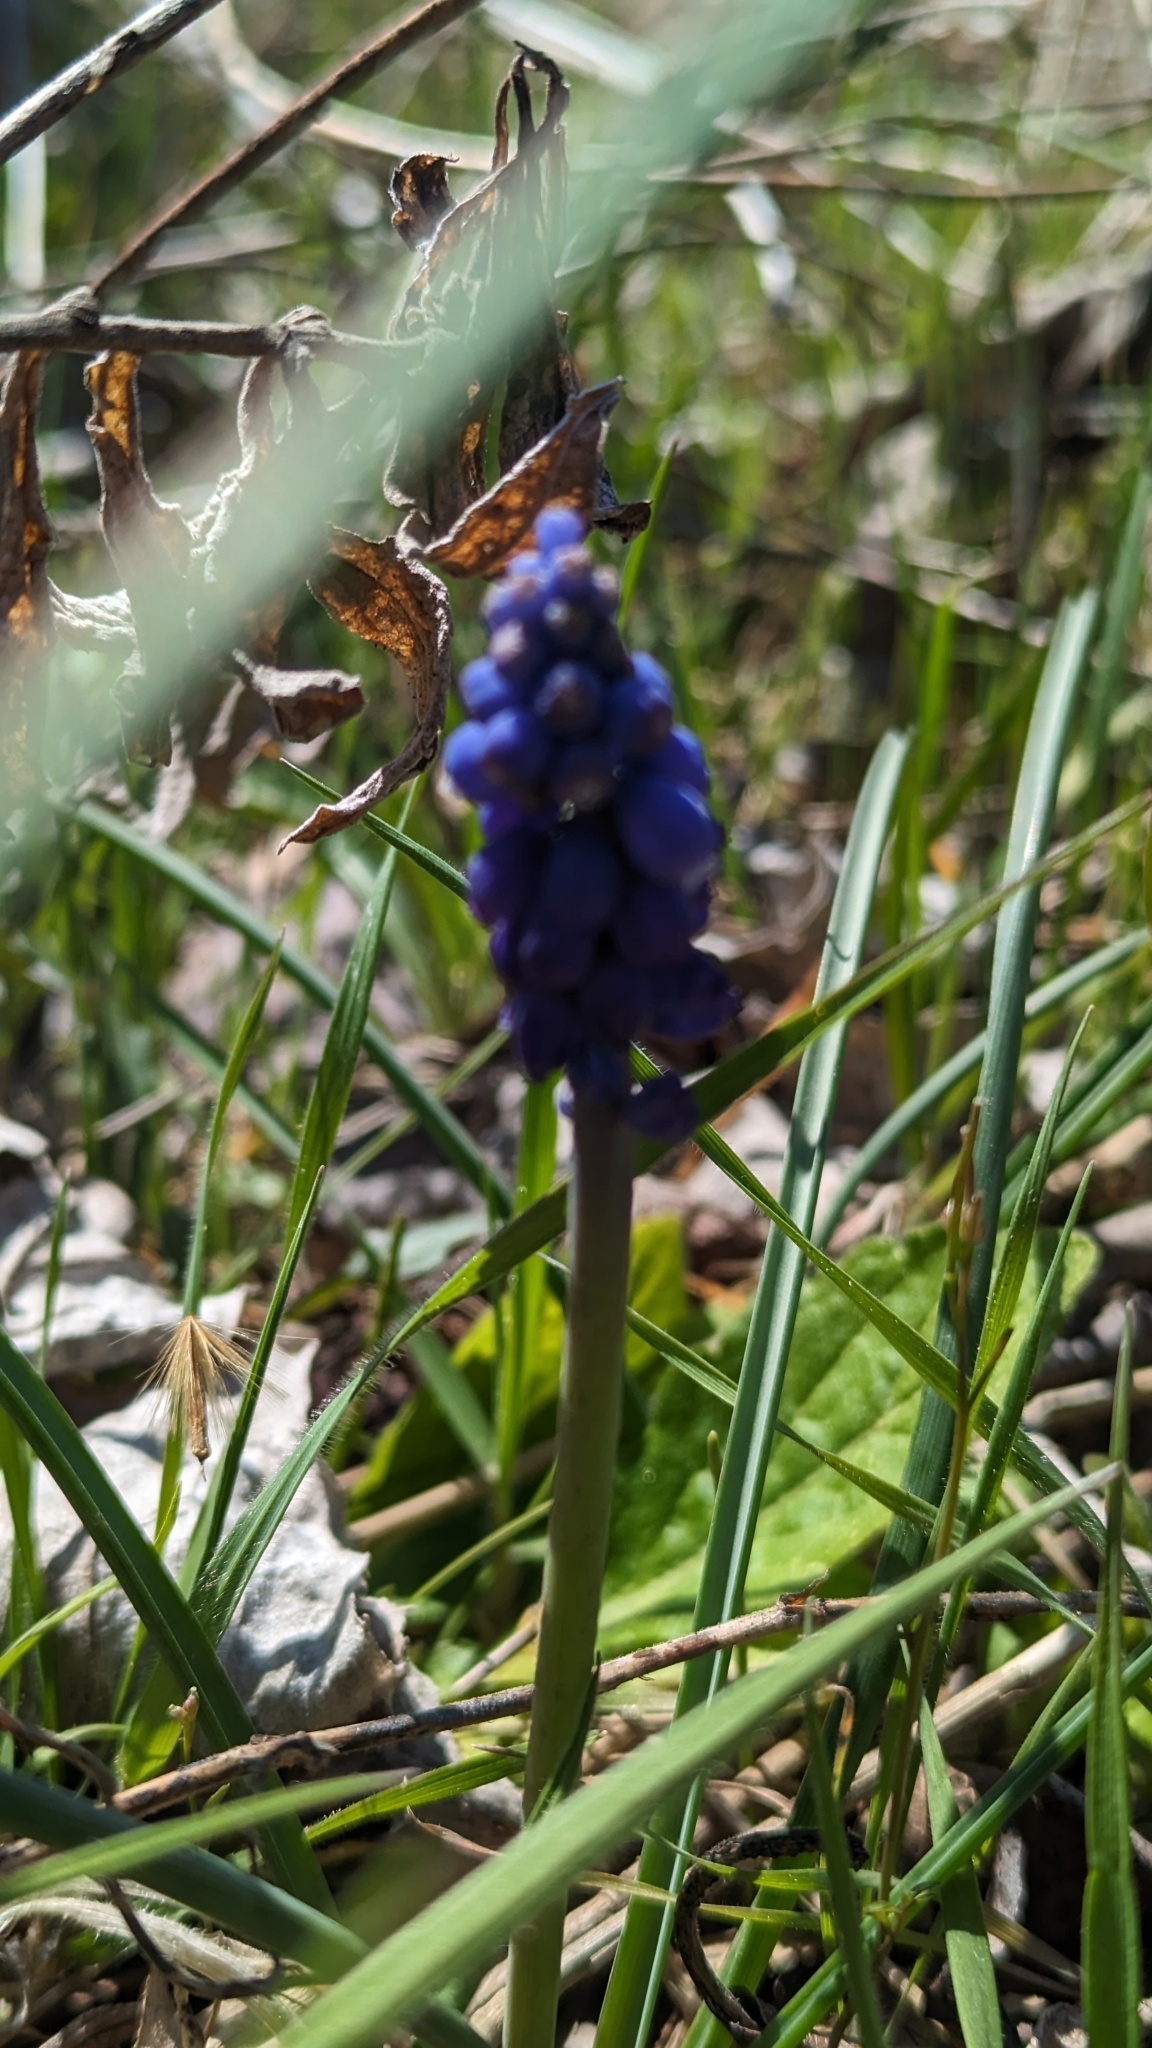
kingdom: Plantae
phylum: Tracheophyta
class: Liliopsida
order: Asparagales
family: Asparagaceae
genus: Muscari
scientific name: Muscari neglectum
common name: Grape-hyacinth
